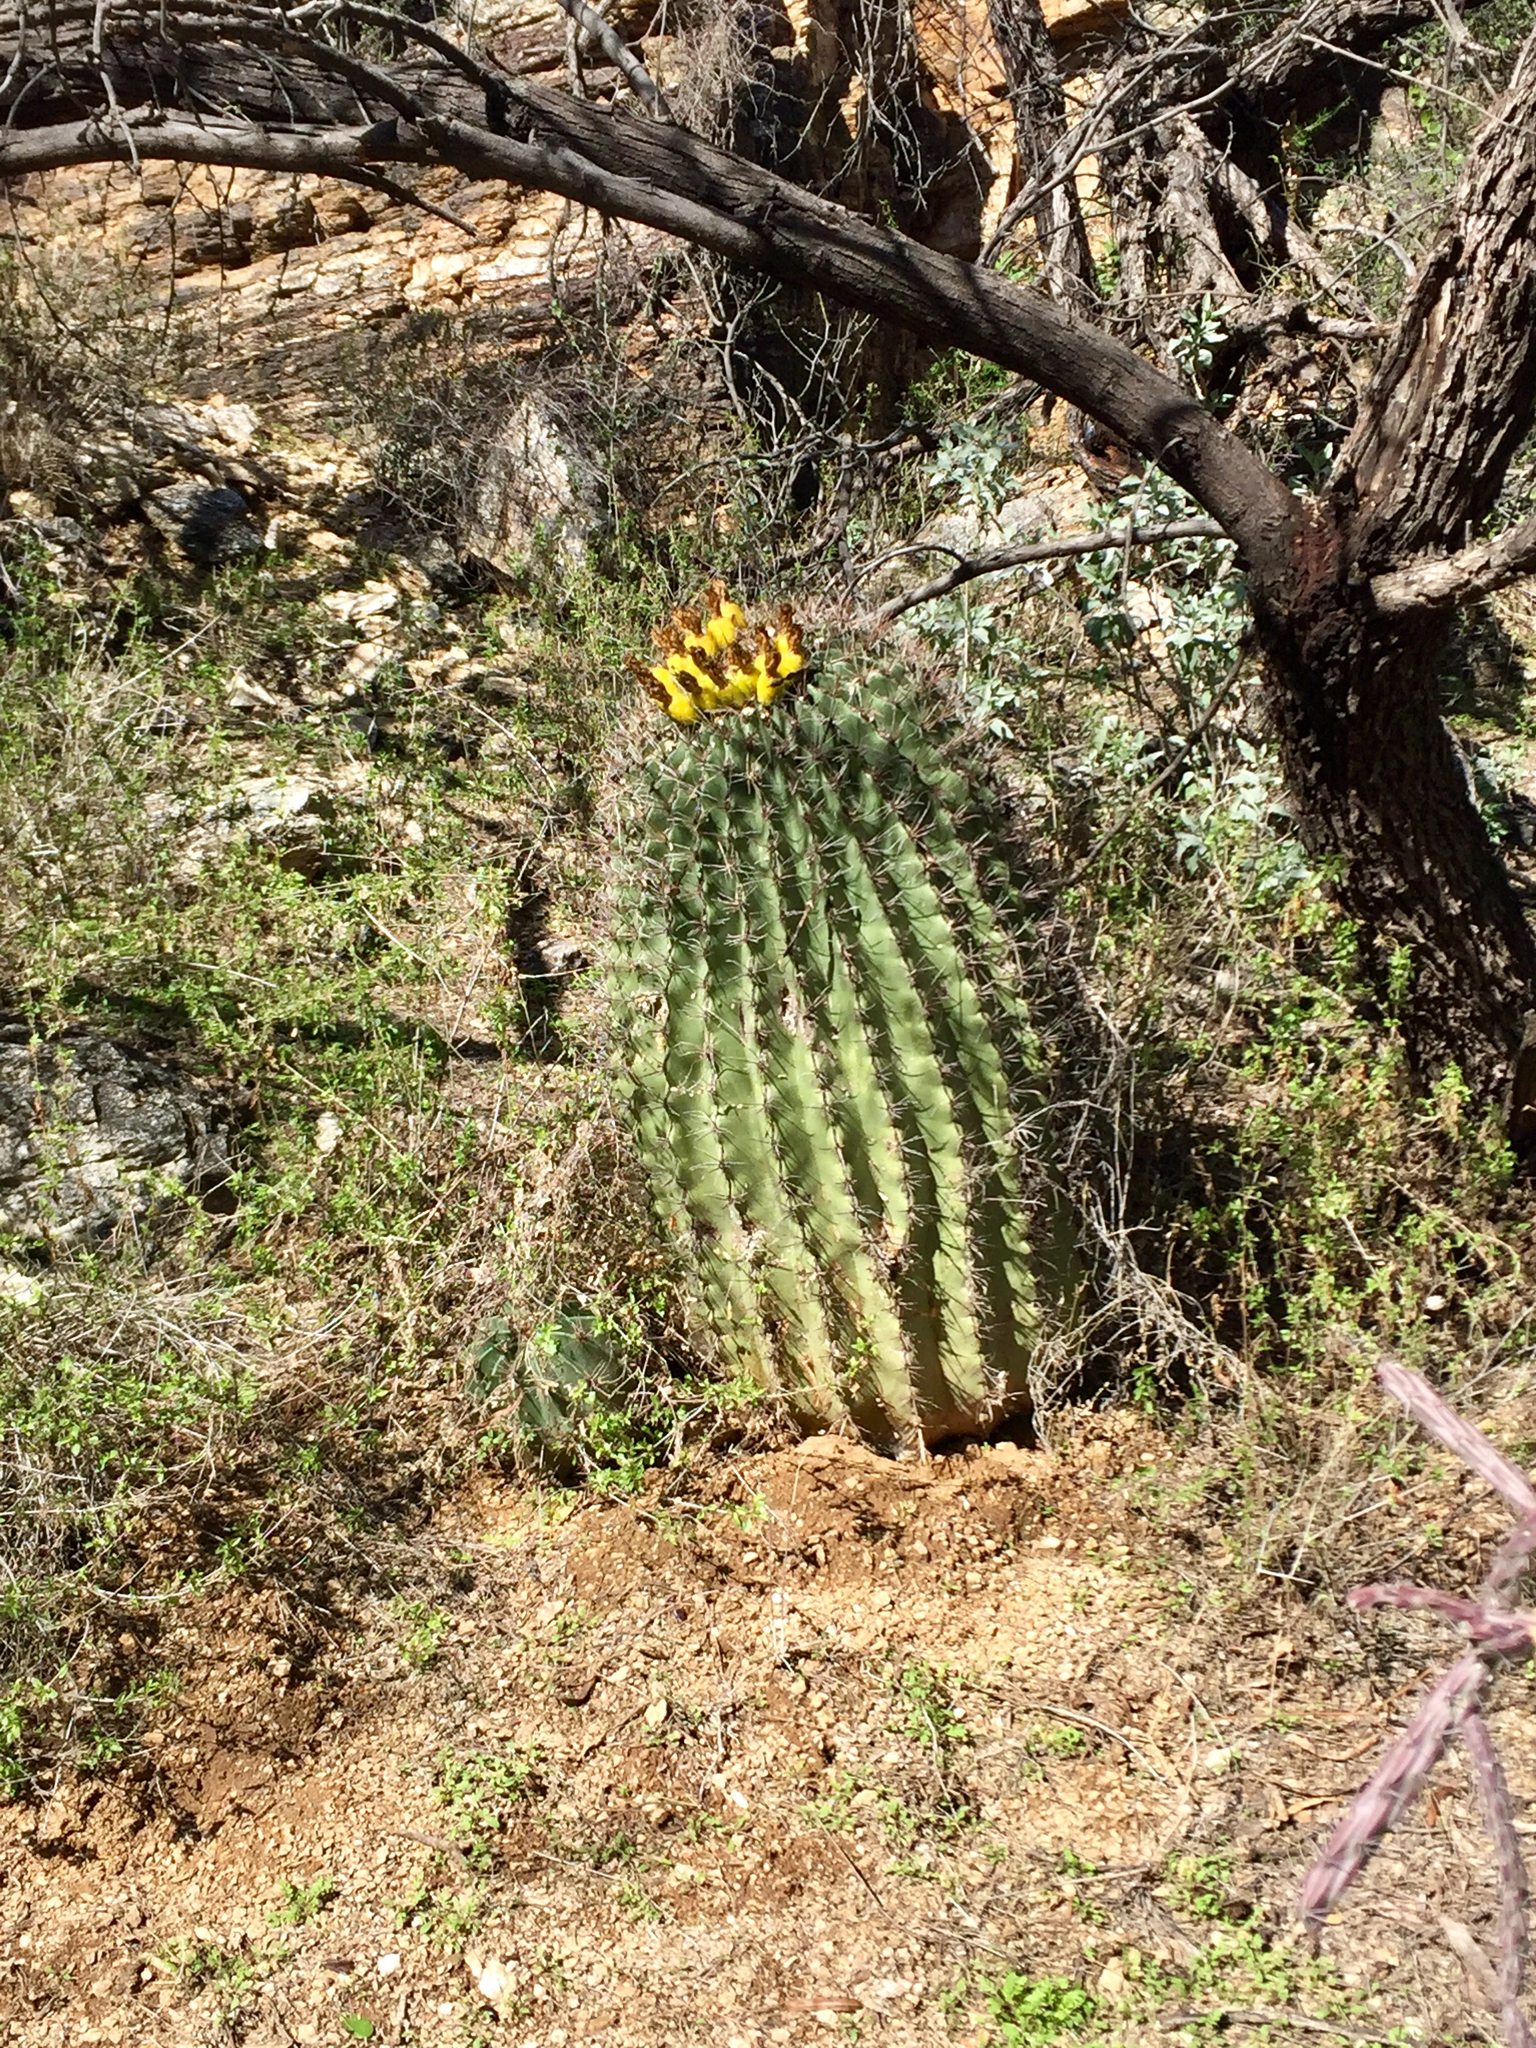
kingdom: Plantae
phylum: Tracheophyta
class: Magnoliopsida
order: Caryophyllales
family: Cactaceae
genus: Ferocactus
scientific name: Ferocactus wislizeni
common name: Candy barrel cactus
